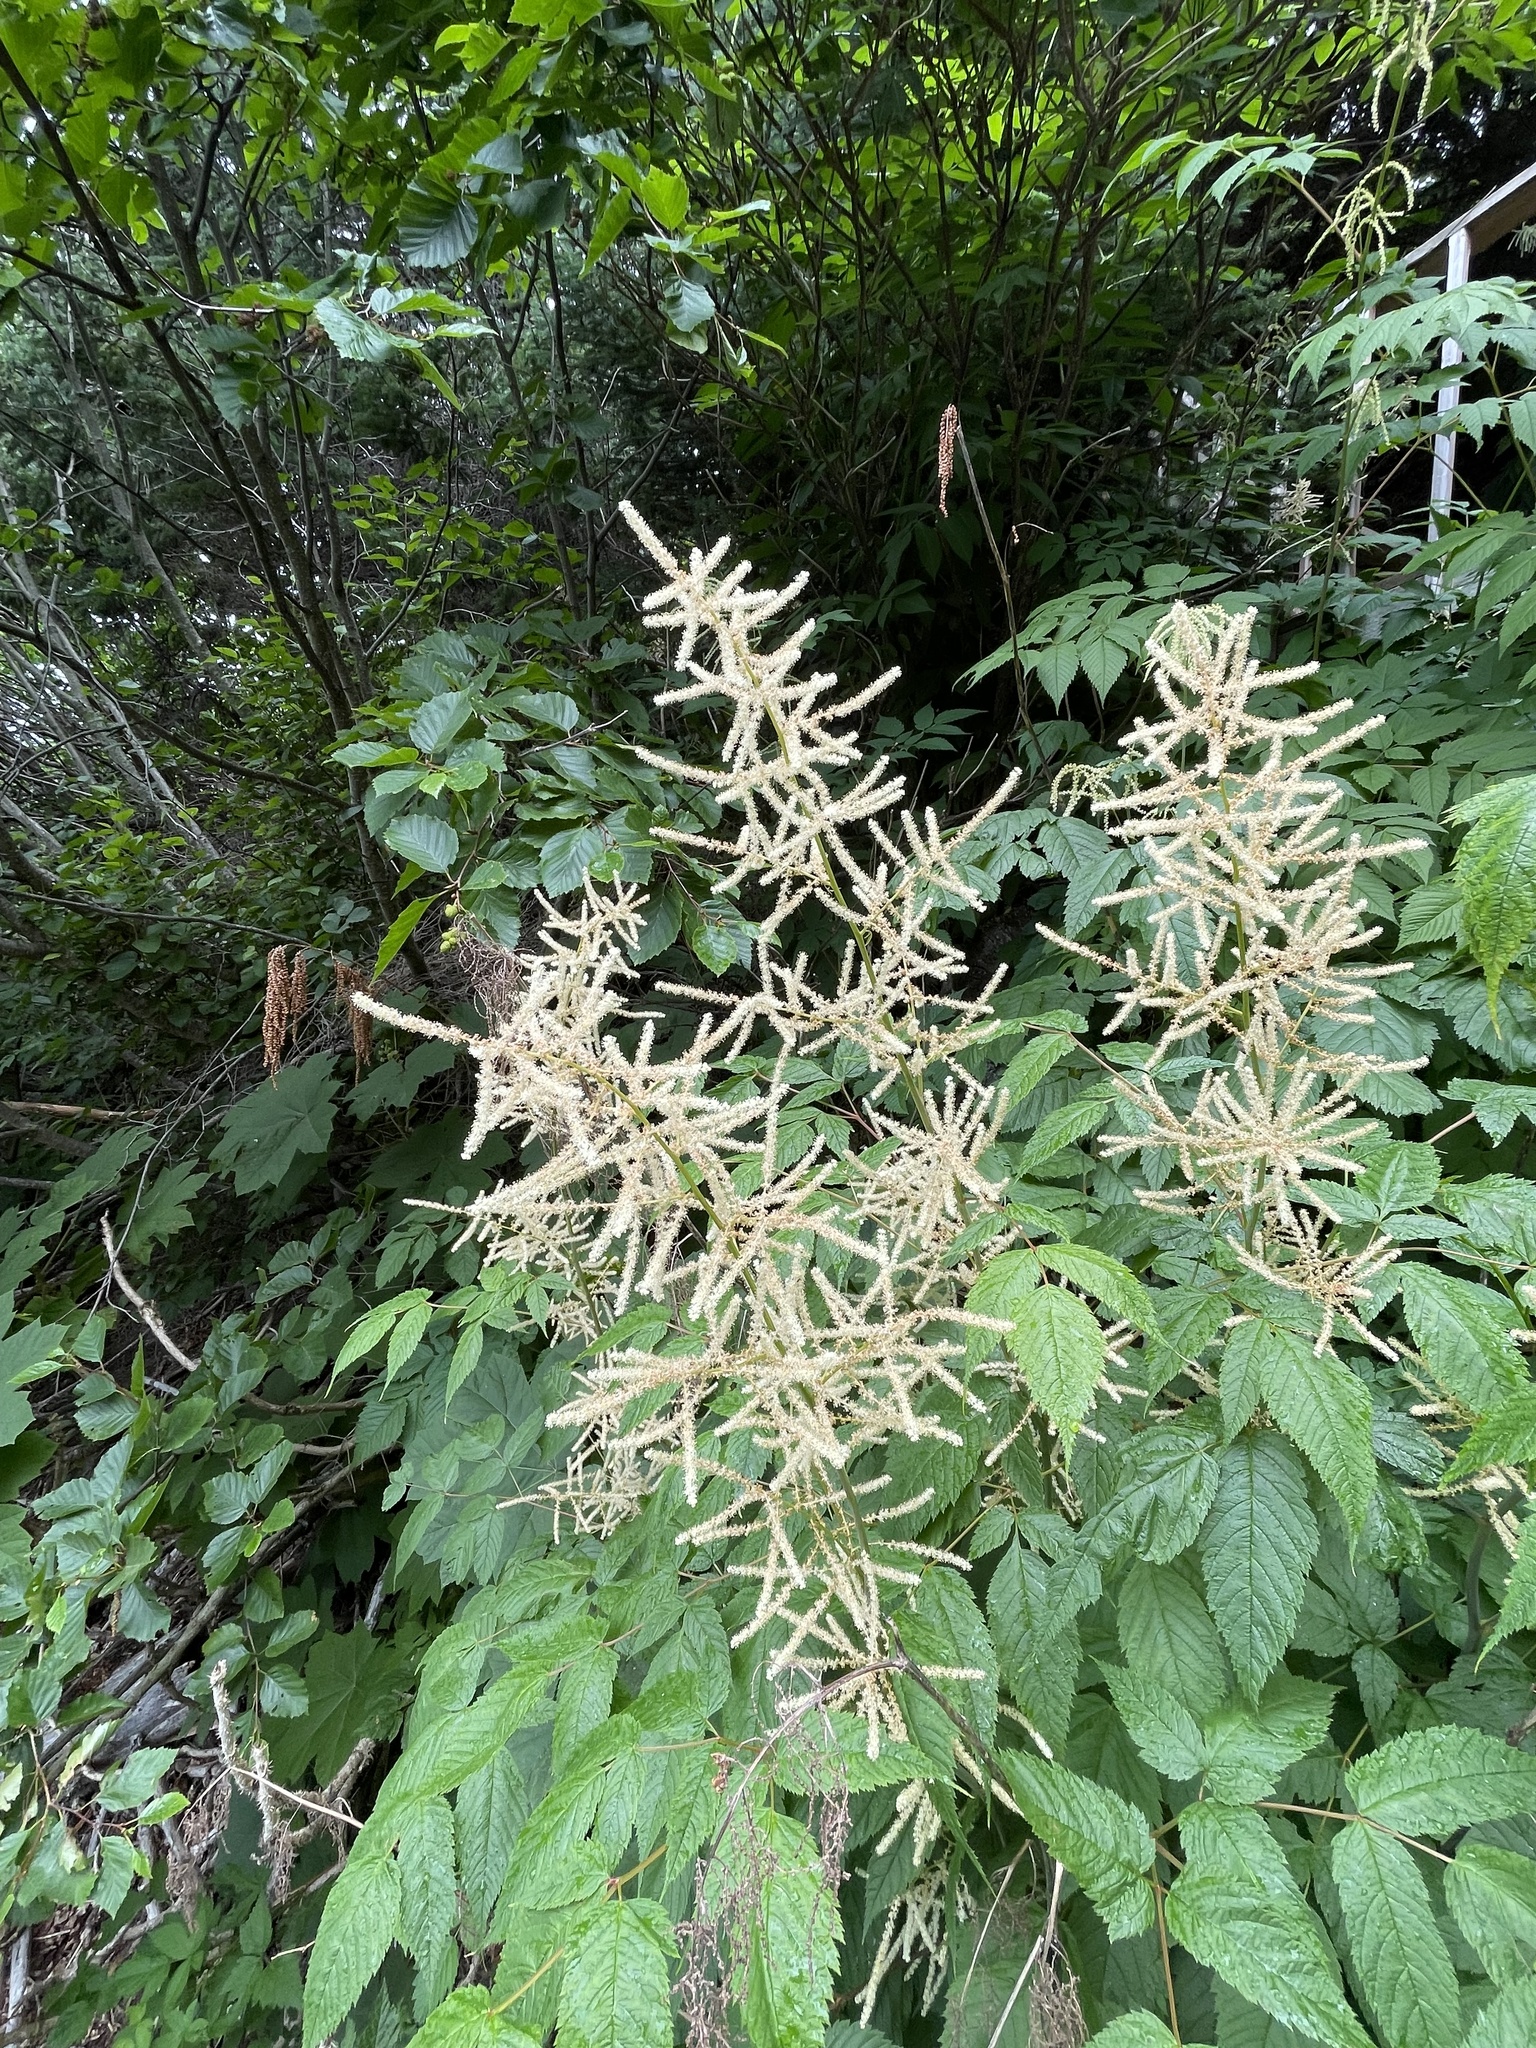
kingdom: Plantae
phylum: Tracheophyta
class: Magnoliopsida
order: Rosales
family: Rosaceae
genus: Aruncus
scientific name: Aruncus dioicus
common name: Buck's-beard
